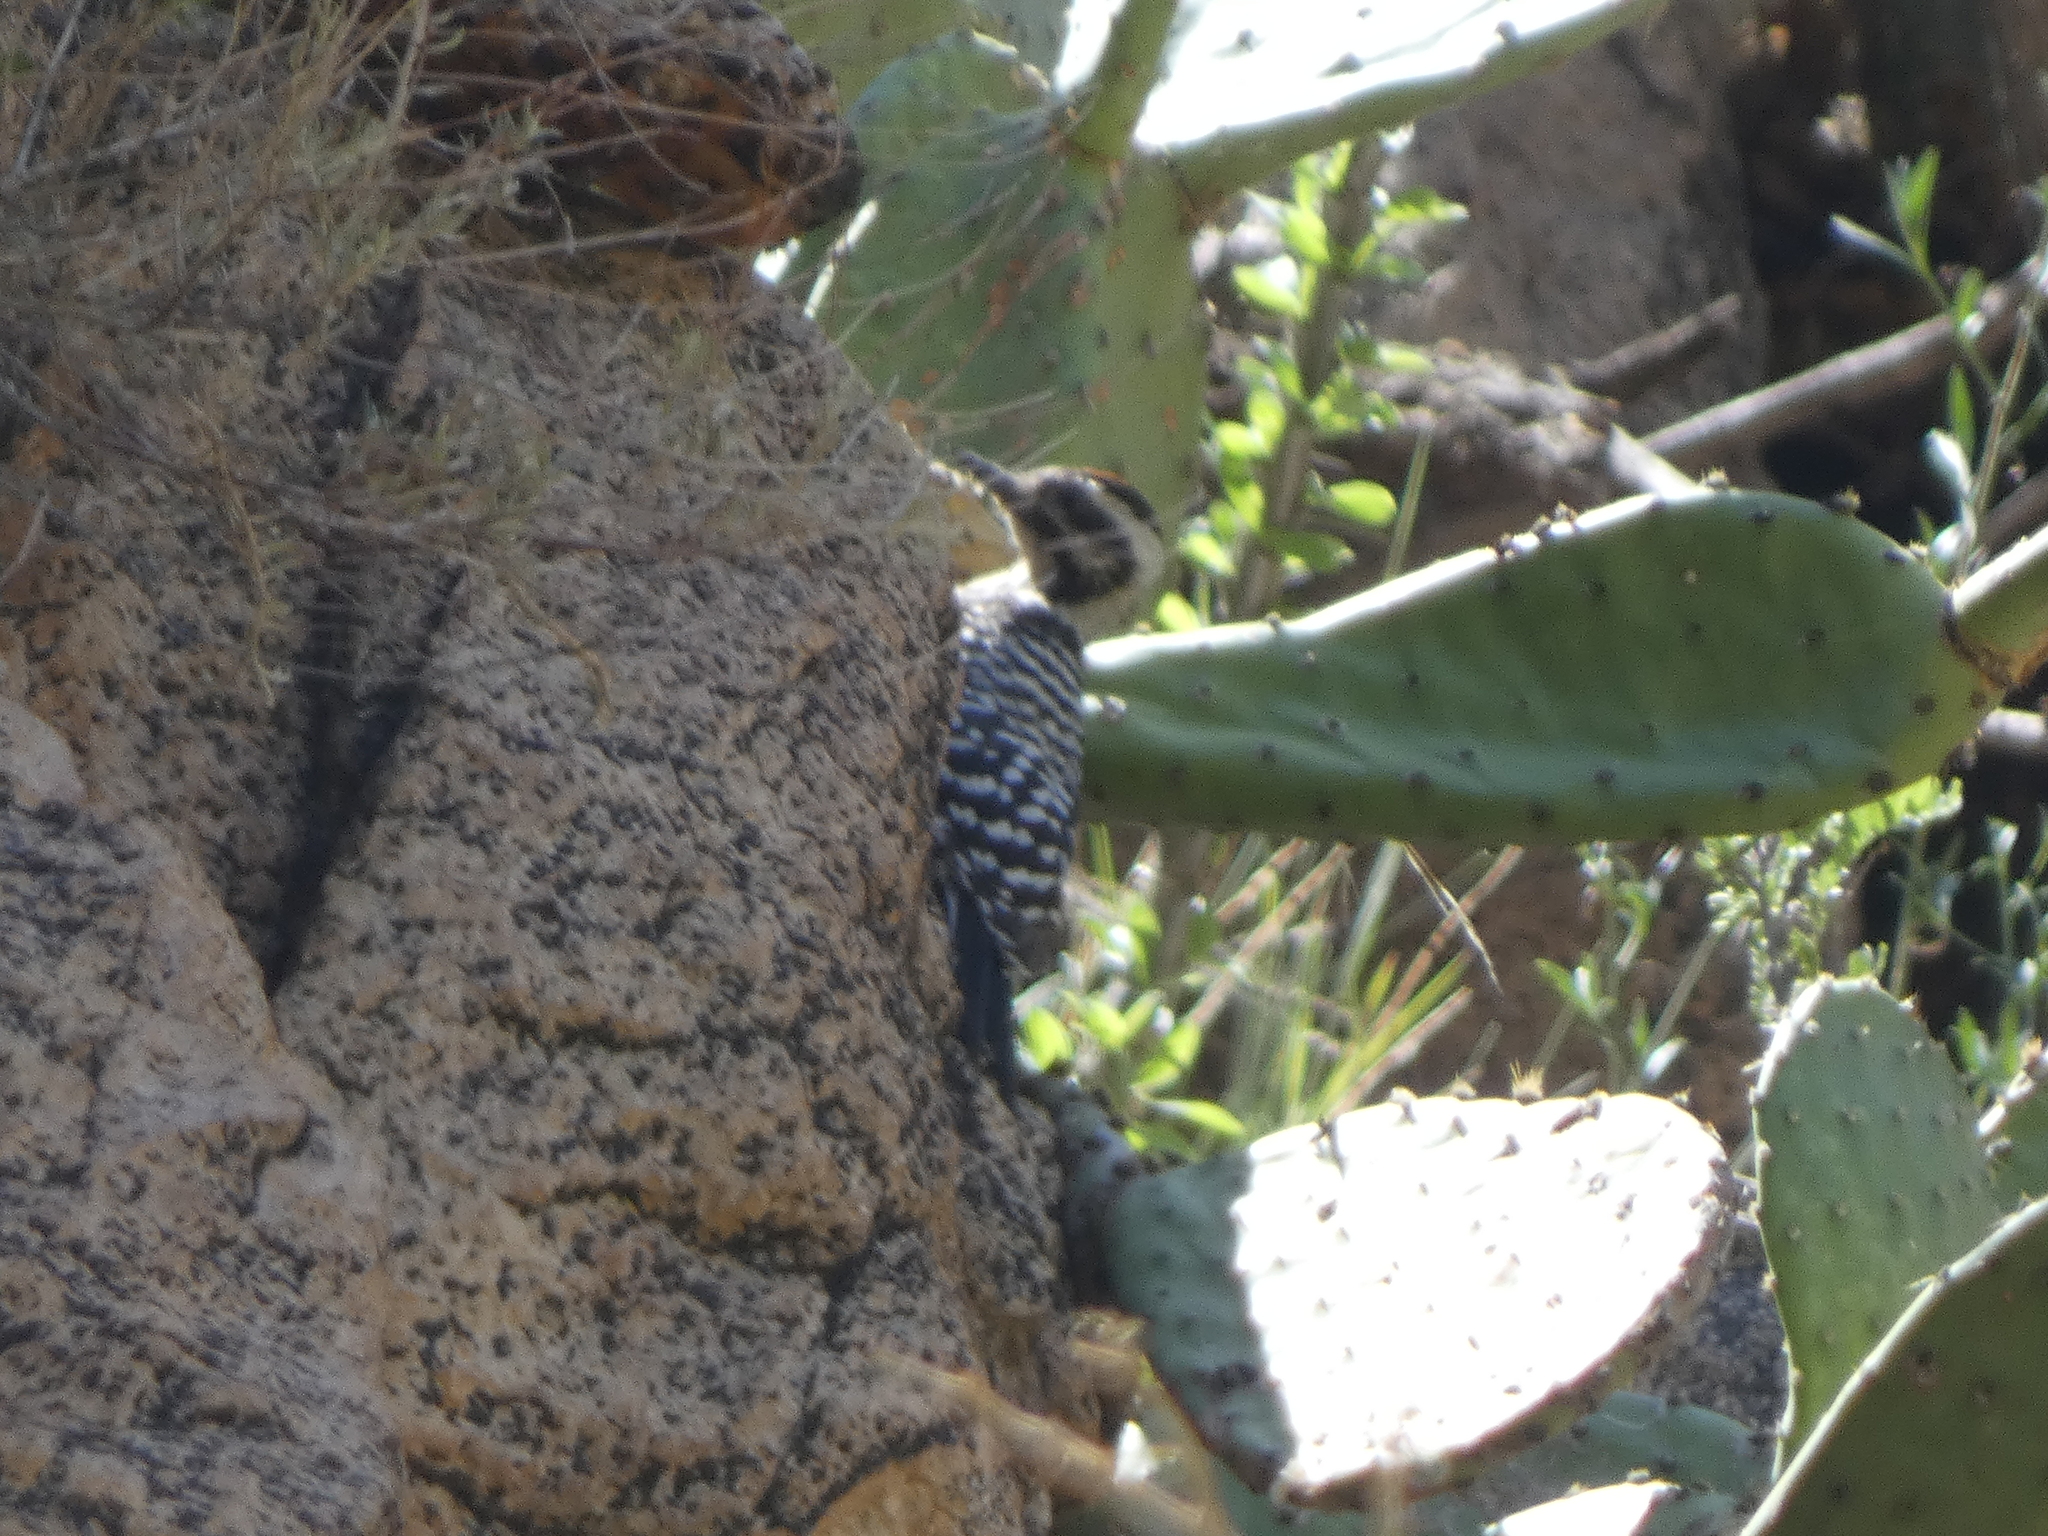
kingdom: Animalia
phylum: Chordata
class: Aves
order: Piciformes
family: Picidae
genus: Dryobates
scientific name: Dryobates scalaris
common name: Ladder-backed woodpecker
